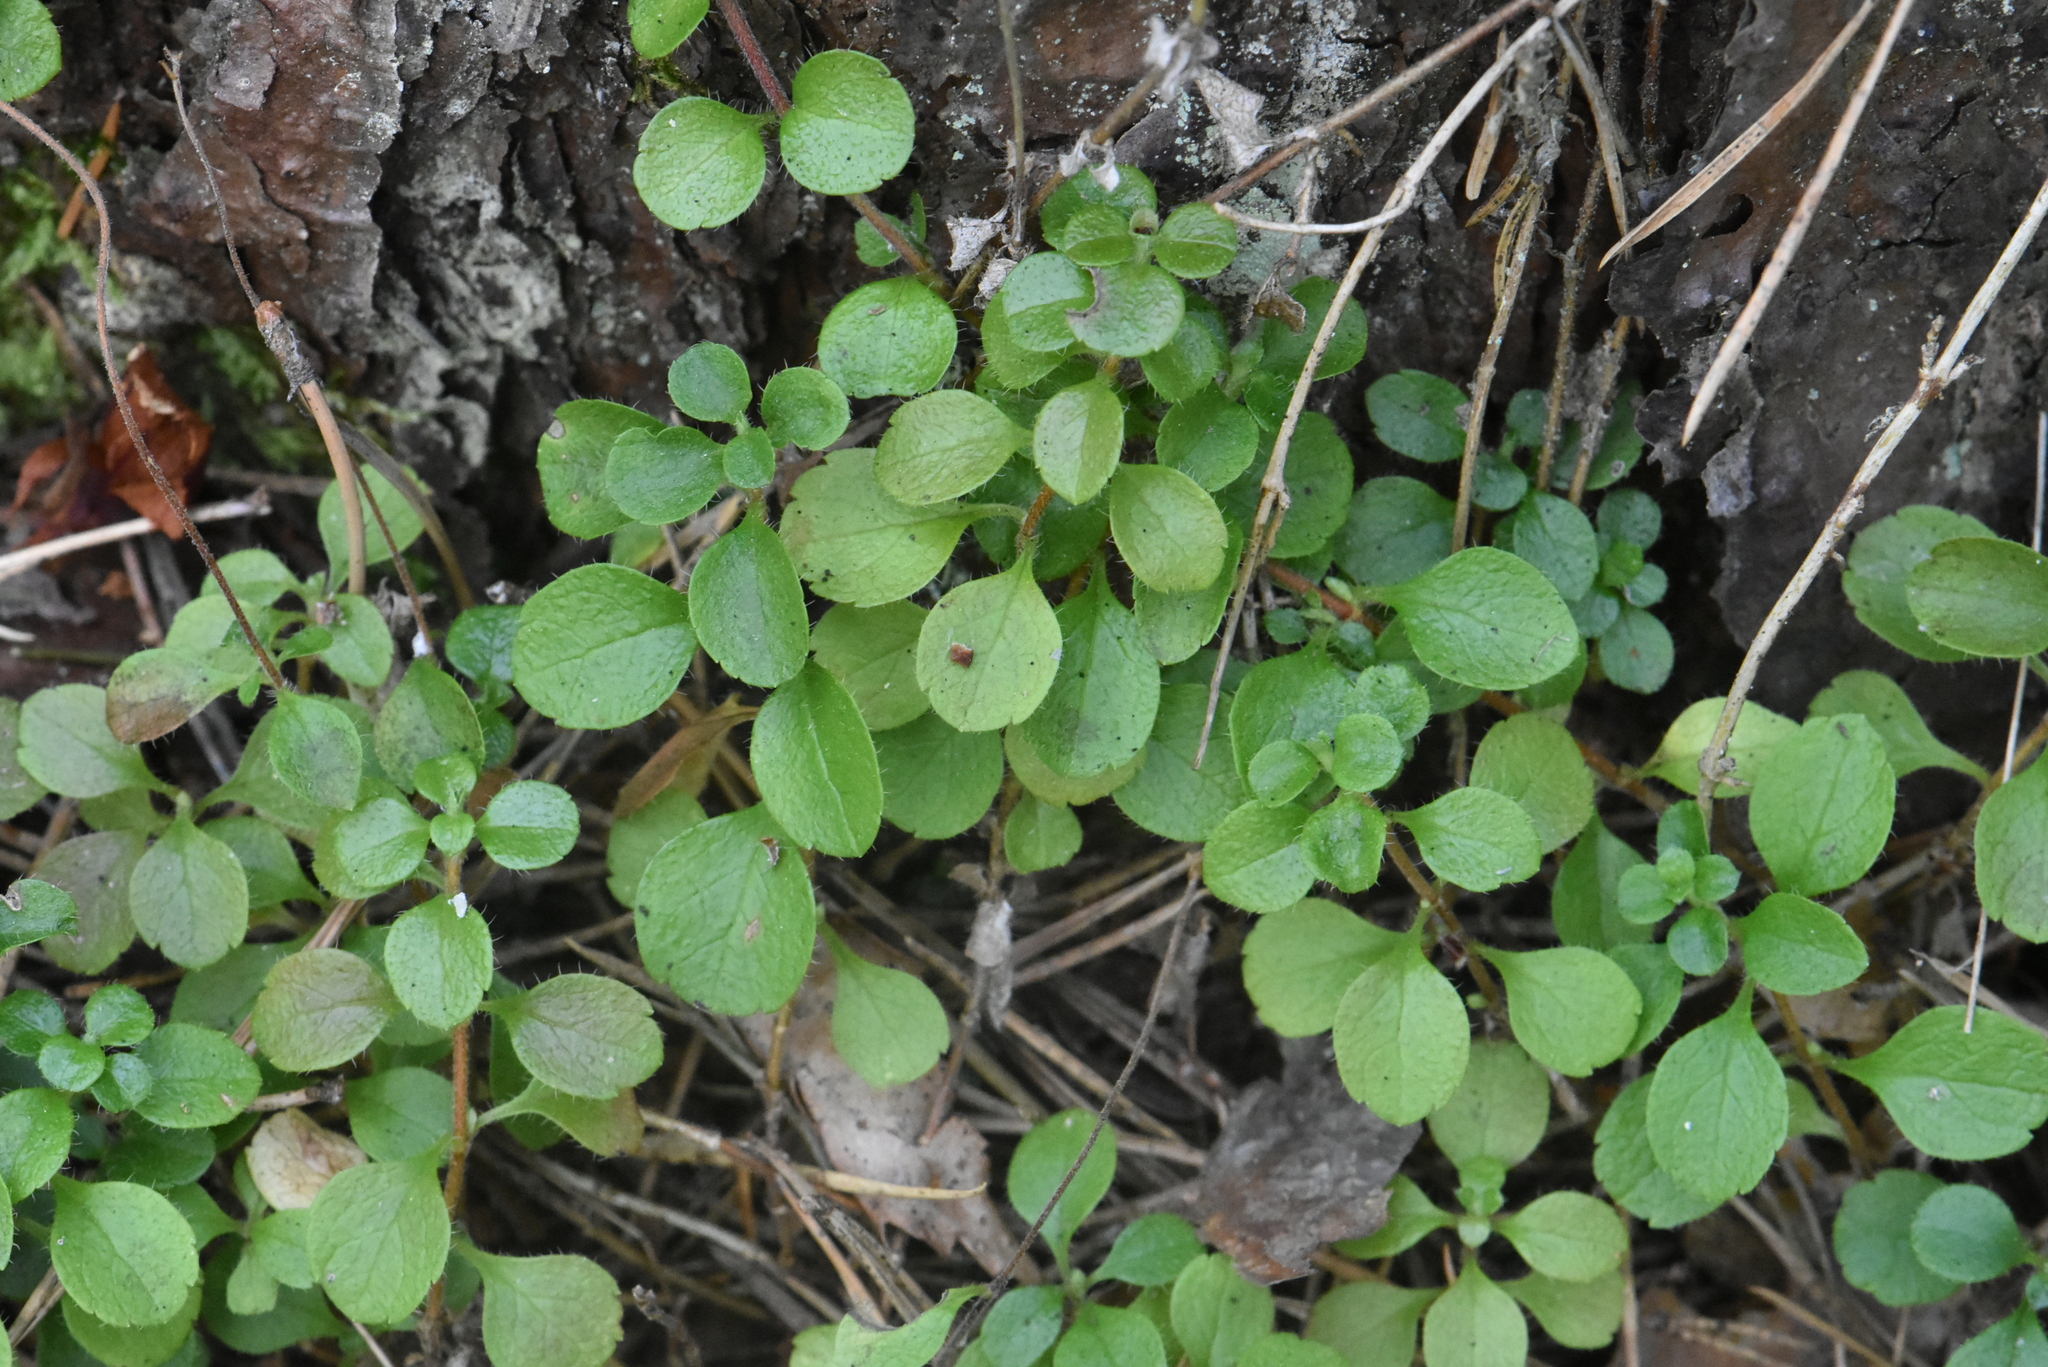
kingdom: Plantae
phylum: Tracheophyta
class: Magnoliopsida
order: Dipsacales
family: Caprifoliaceae
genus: Linnaea
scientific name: Linnaea borealis
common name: Twinflower
